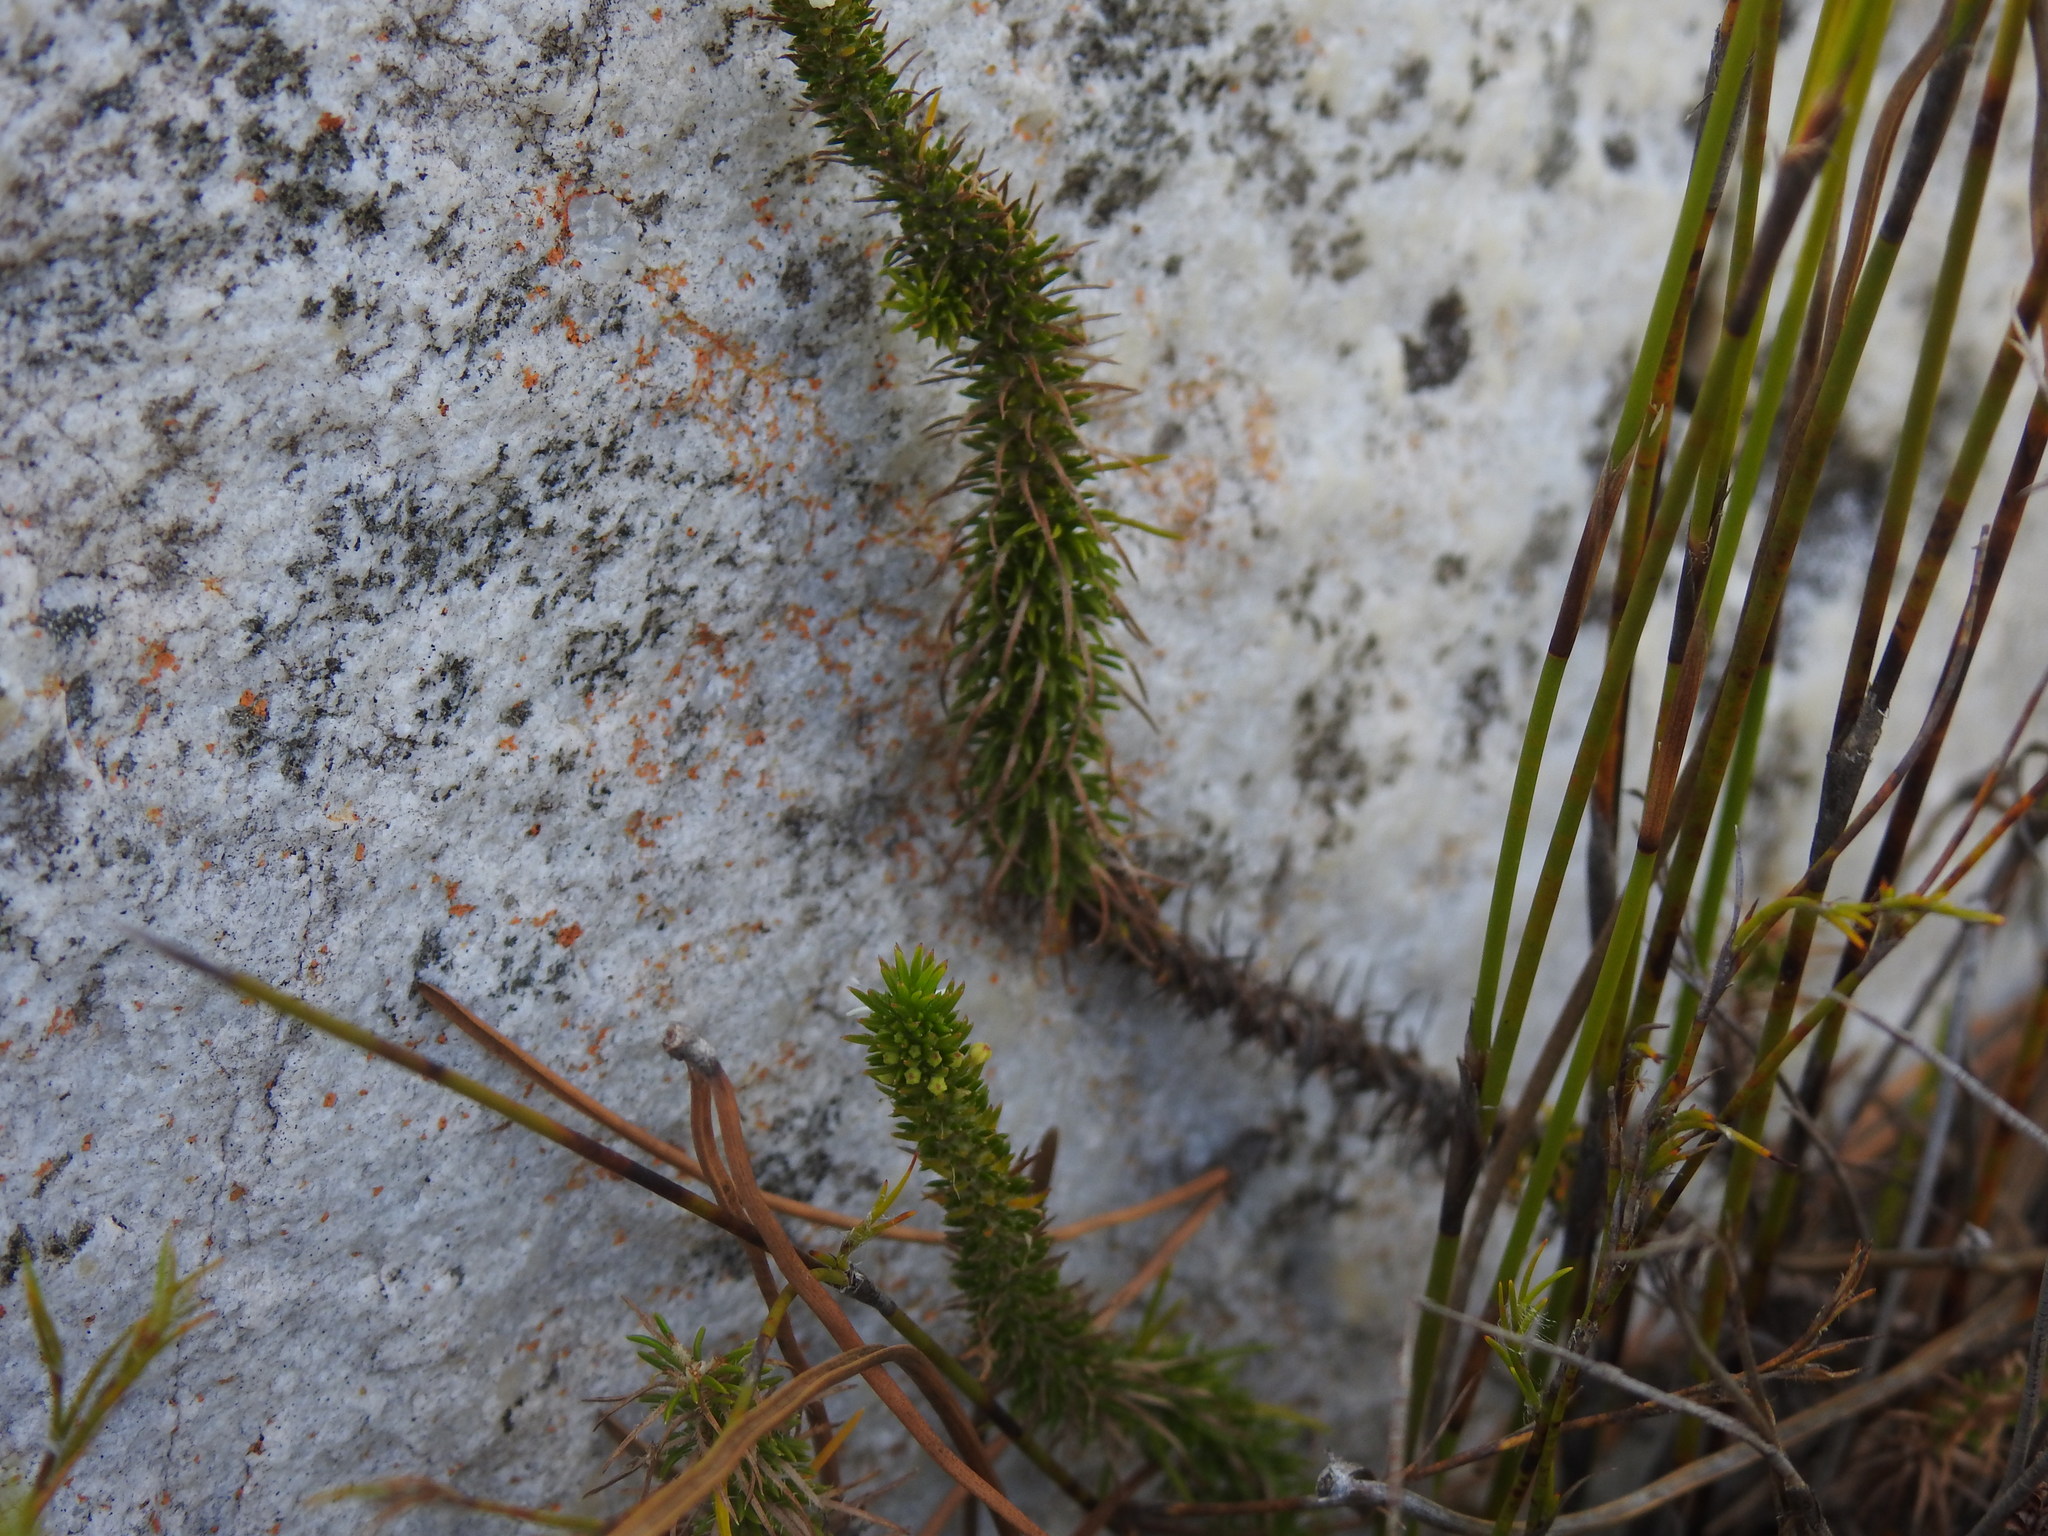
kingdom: Plantae
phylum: Tracheophyta
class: Magnoliopsida
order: Asterales
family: Campanulaceae
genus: Merciera
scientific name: Merciera leptoloba
